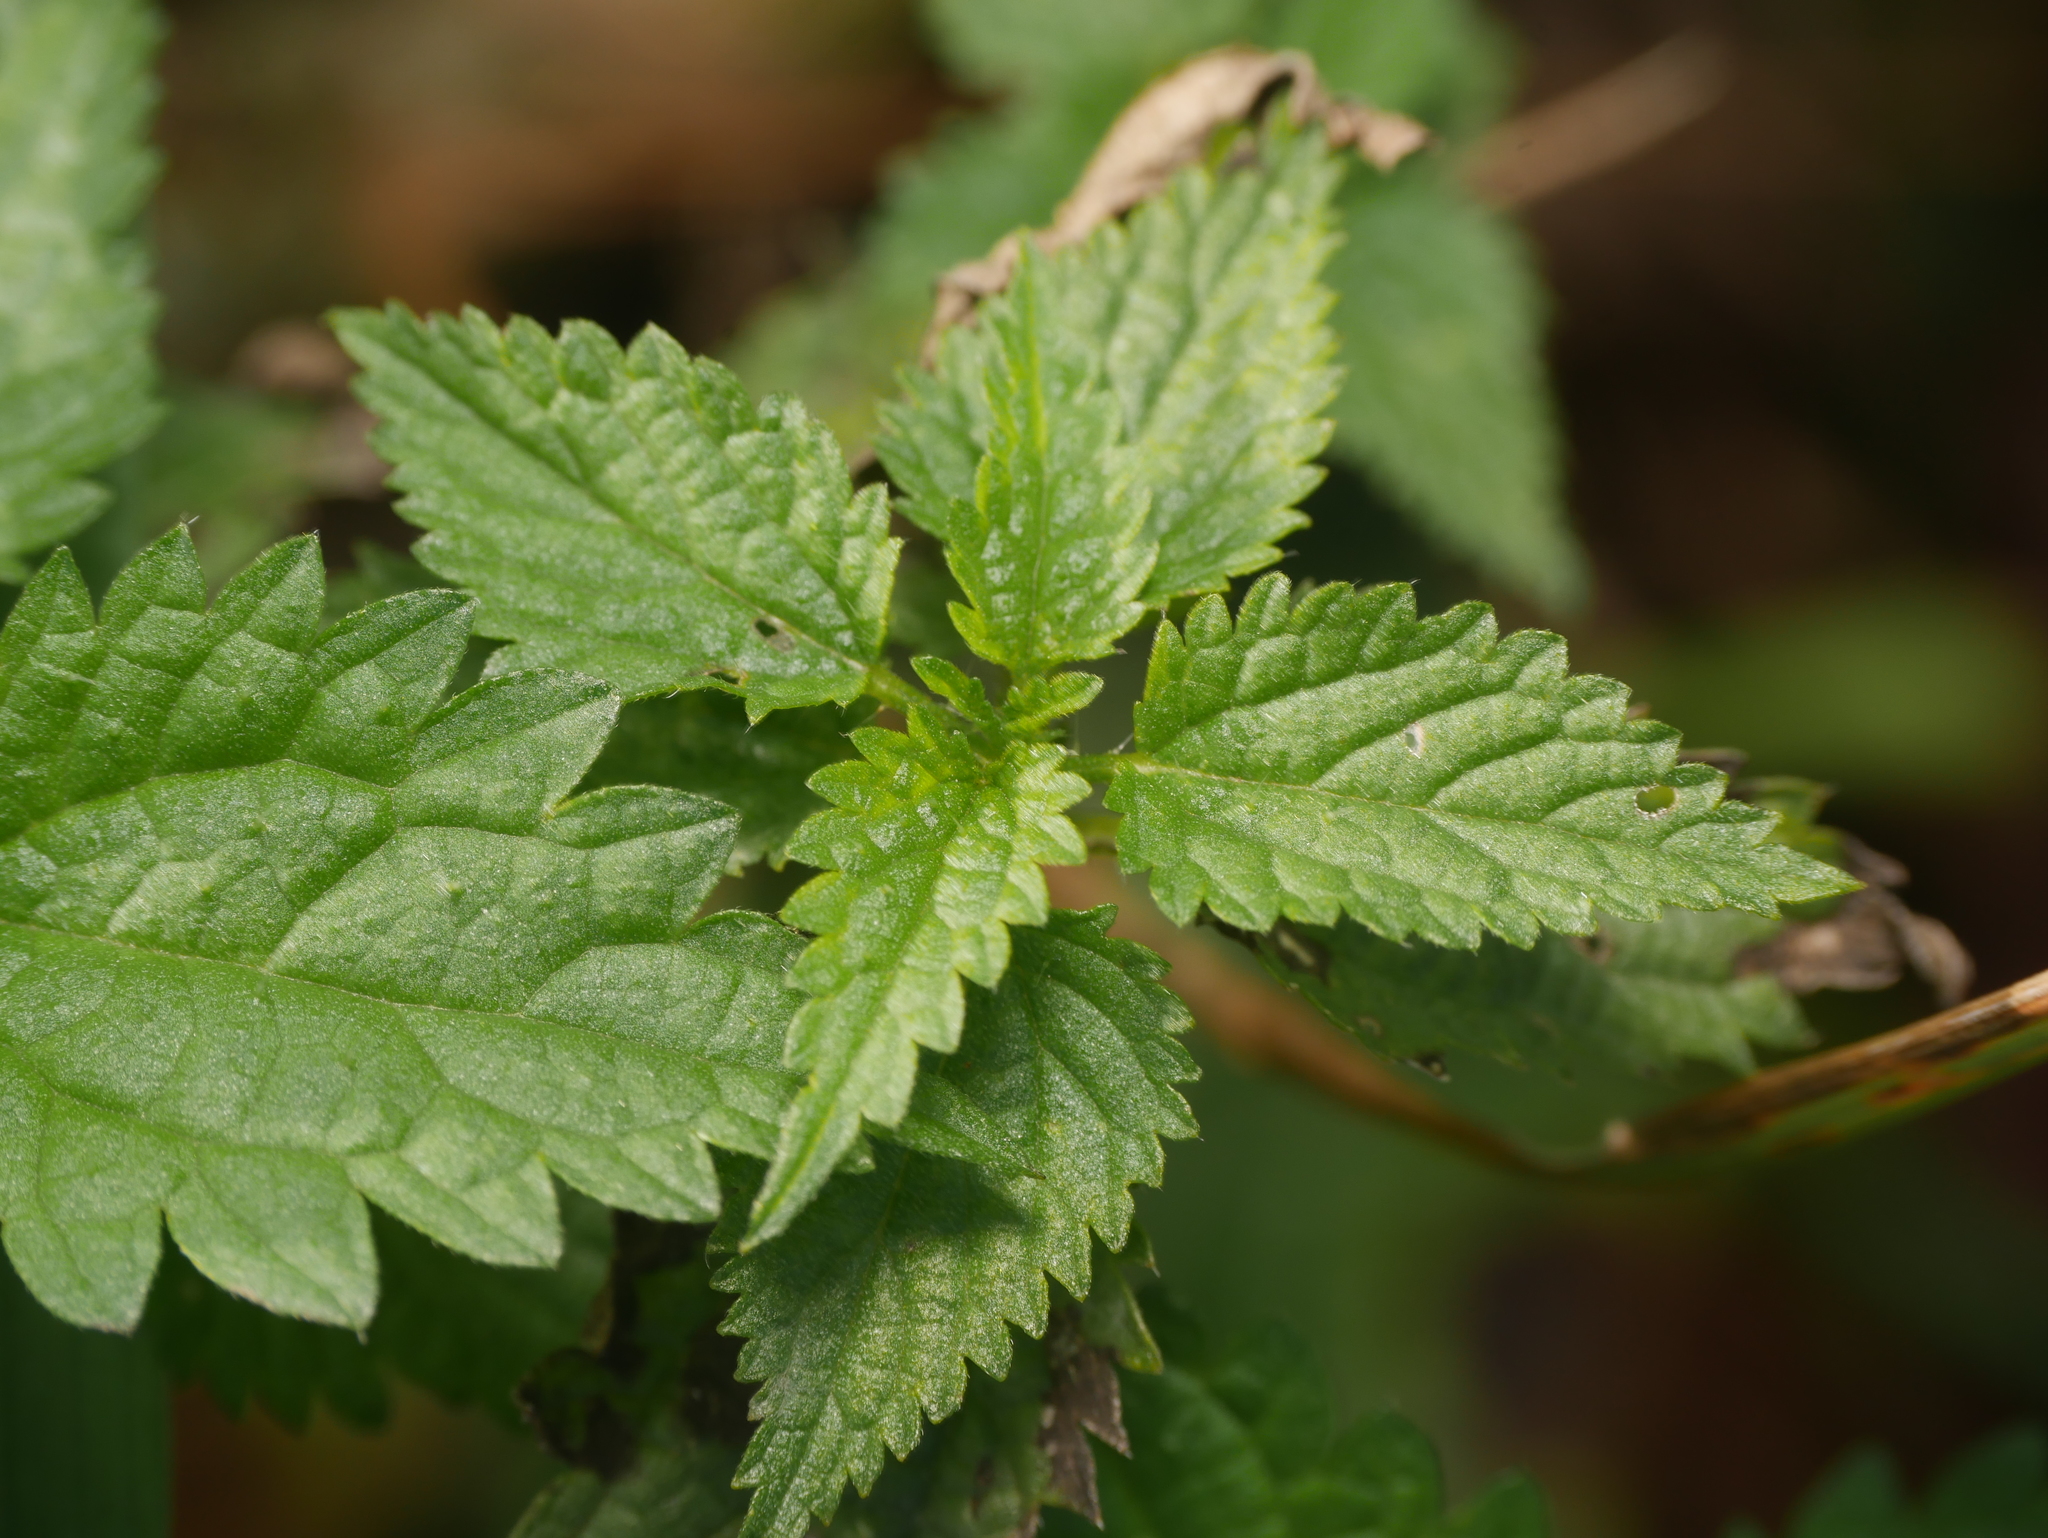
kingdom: Plantae
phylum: Tracheophyta
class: Magnoliopsida
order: Rosales
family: Urticaceae
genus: Urtica
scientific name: Urtica dioica
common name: Common nettle
